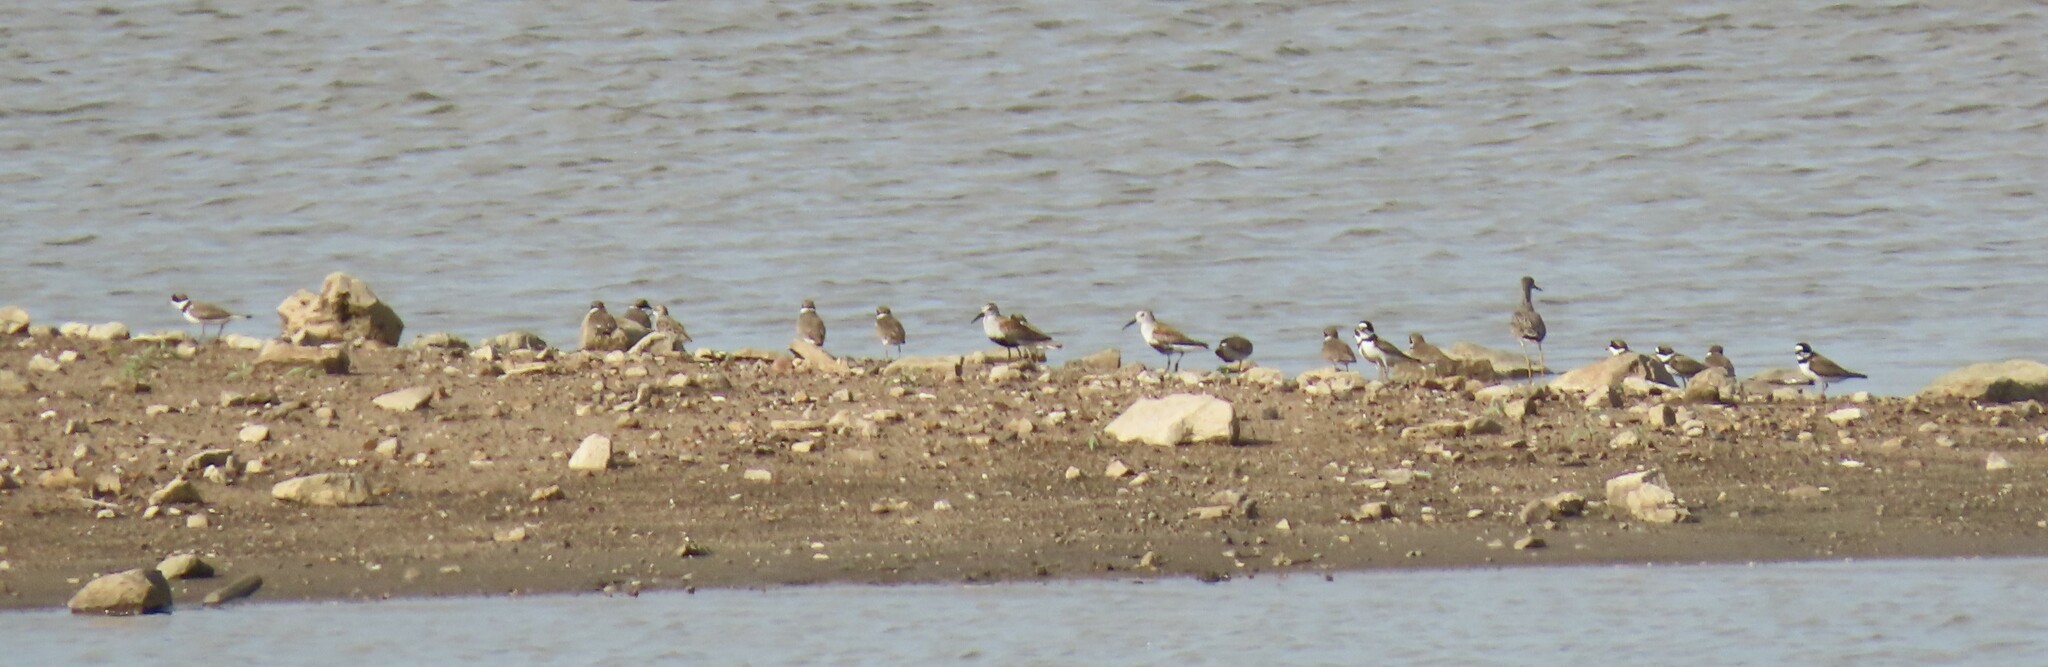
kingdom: Animalia
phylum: Chordata
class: Aves
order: Charadriiformes
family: Scolopacidae
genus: Calidris
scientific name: Calidris alpina
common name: Dunlin
